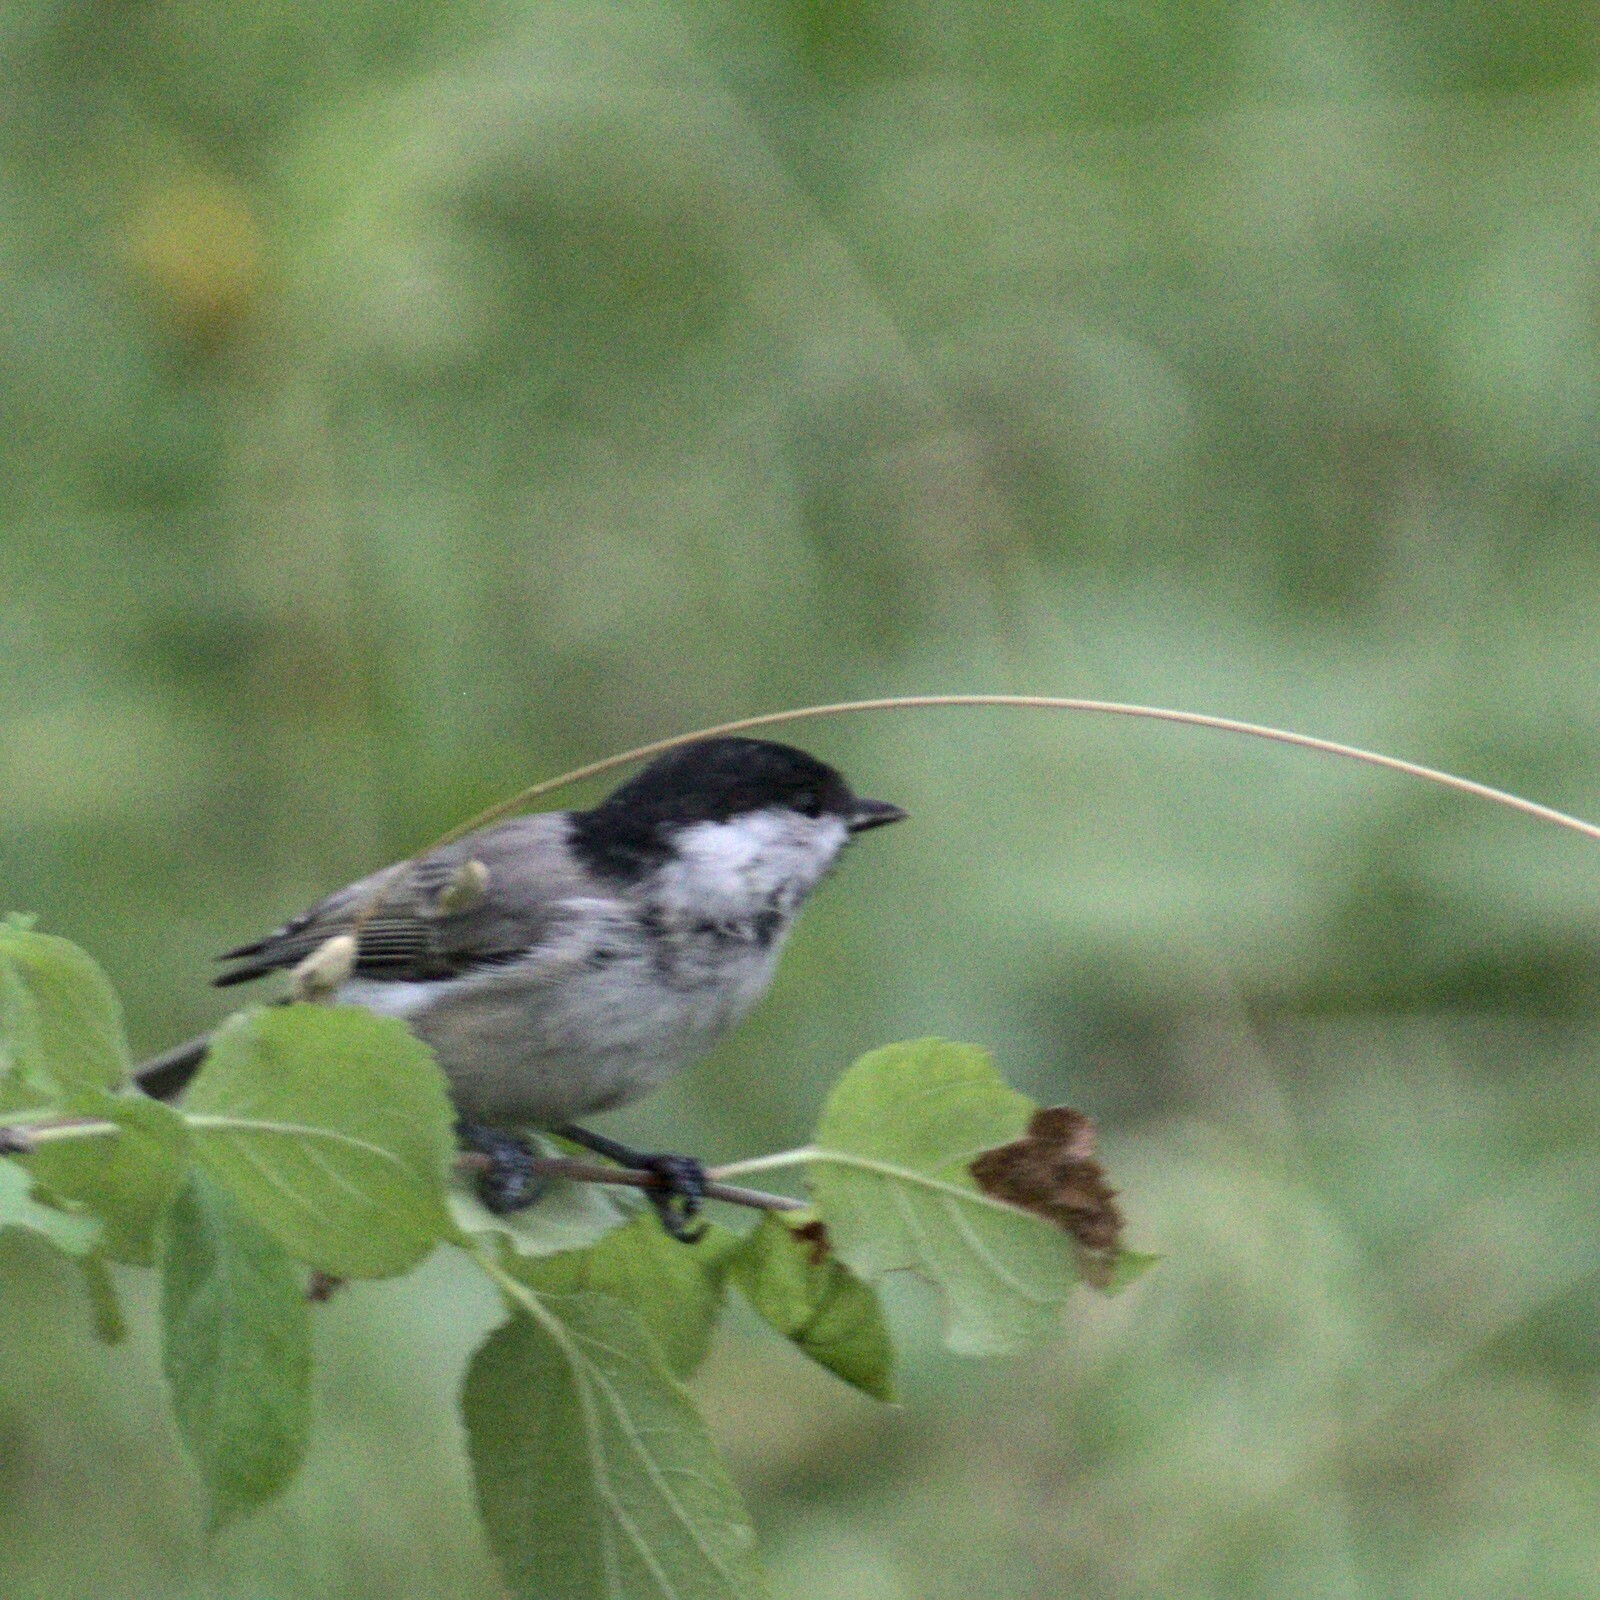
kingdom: Animalia
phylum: Chordata
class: Aves
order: Passeriformes
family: Paridae
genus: Poecile
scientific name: Poecile palustris
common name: Marsh tit
